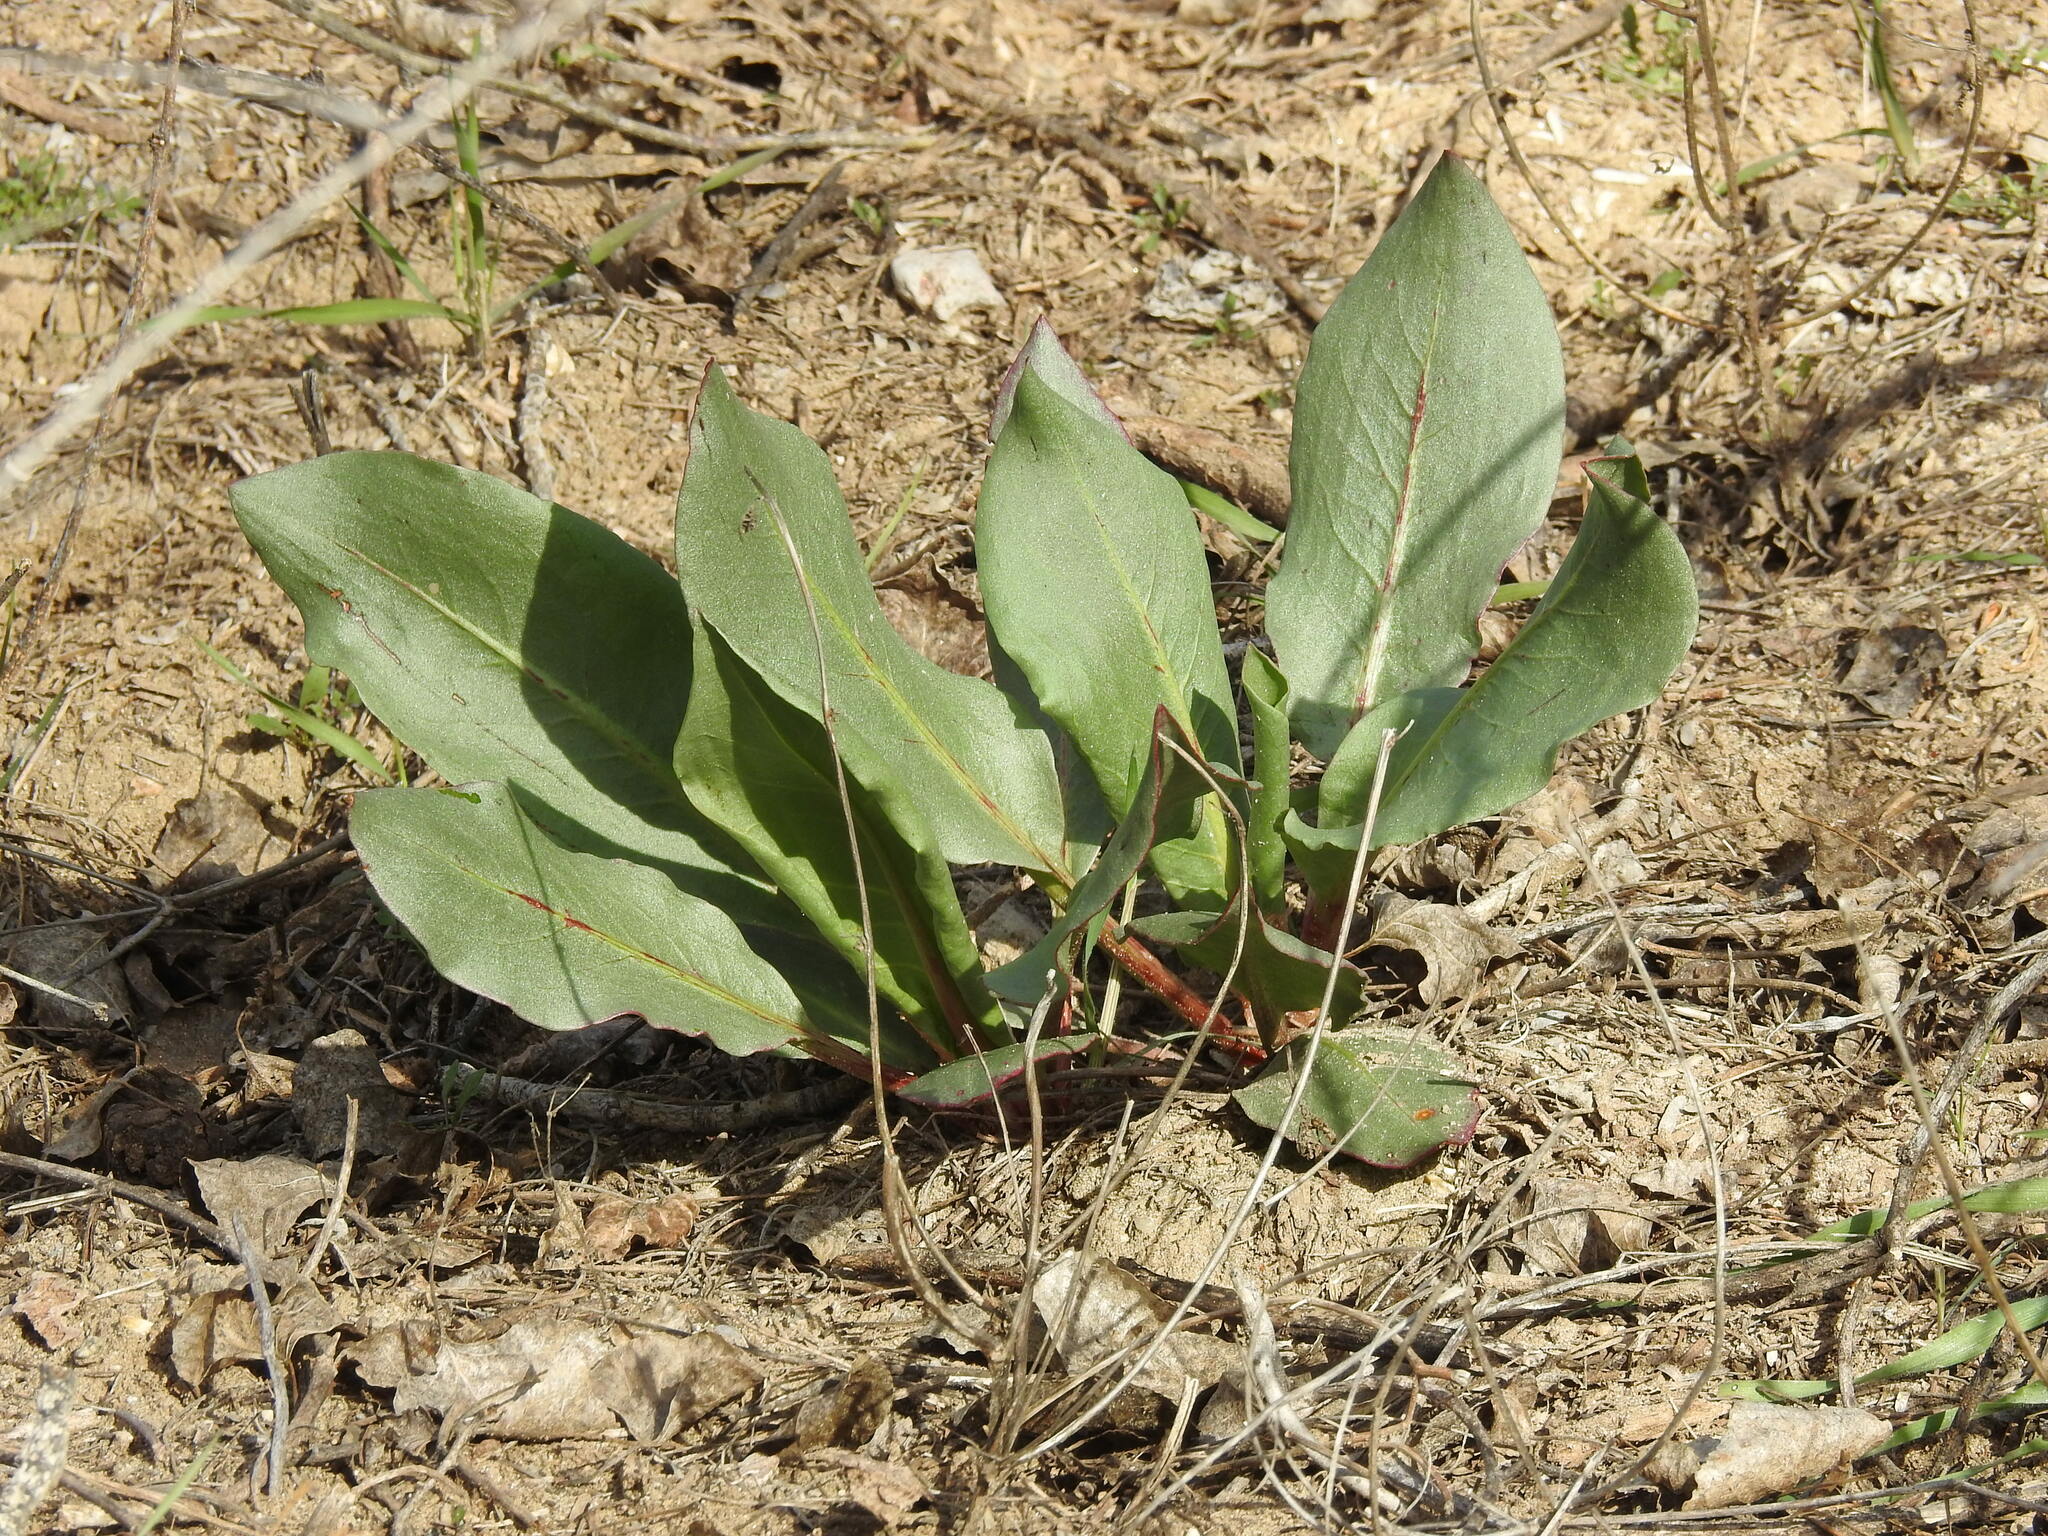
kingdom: Plantae
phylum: Tracheophyta
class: Magnoliopsida
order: Caryophyllales
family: Polygonaceae
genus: Rumex
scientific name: Rumex hymenosepalus
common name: Ganagra
